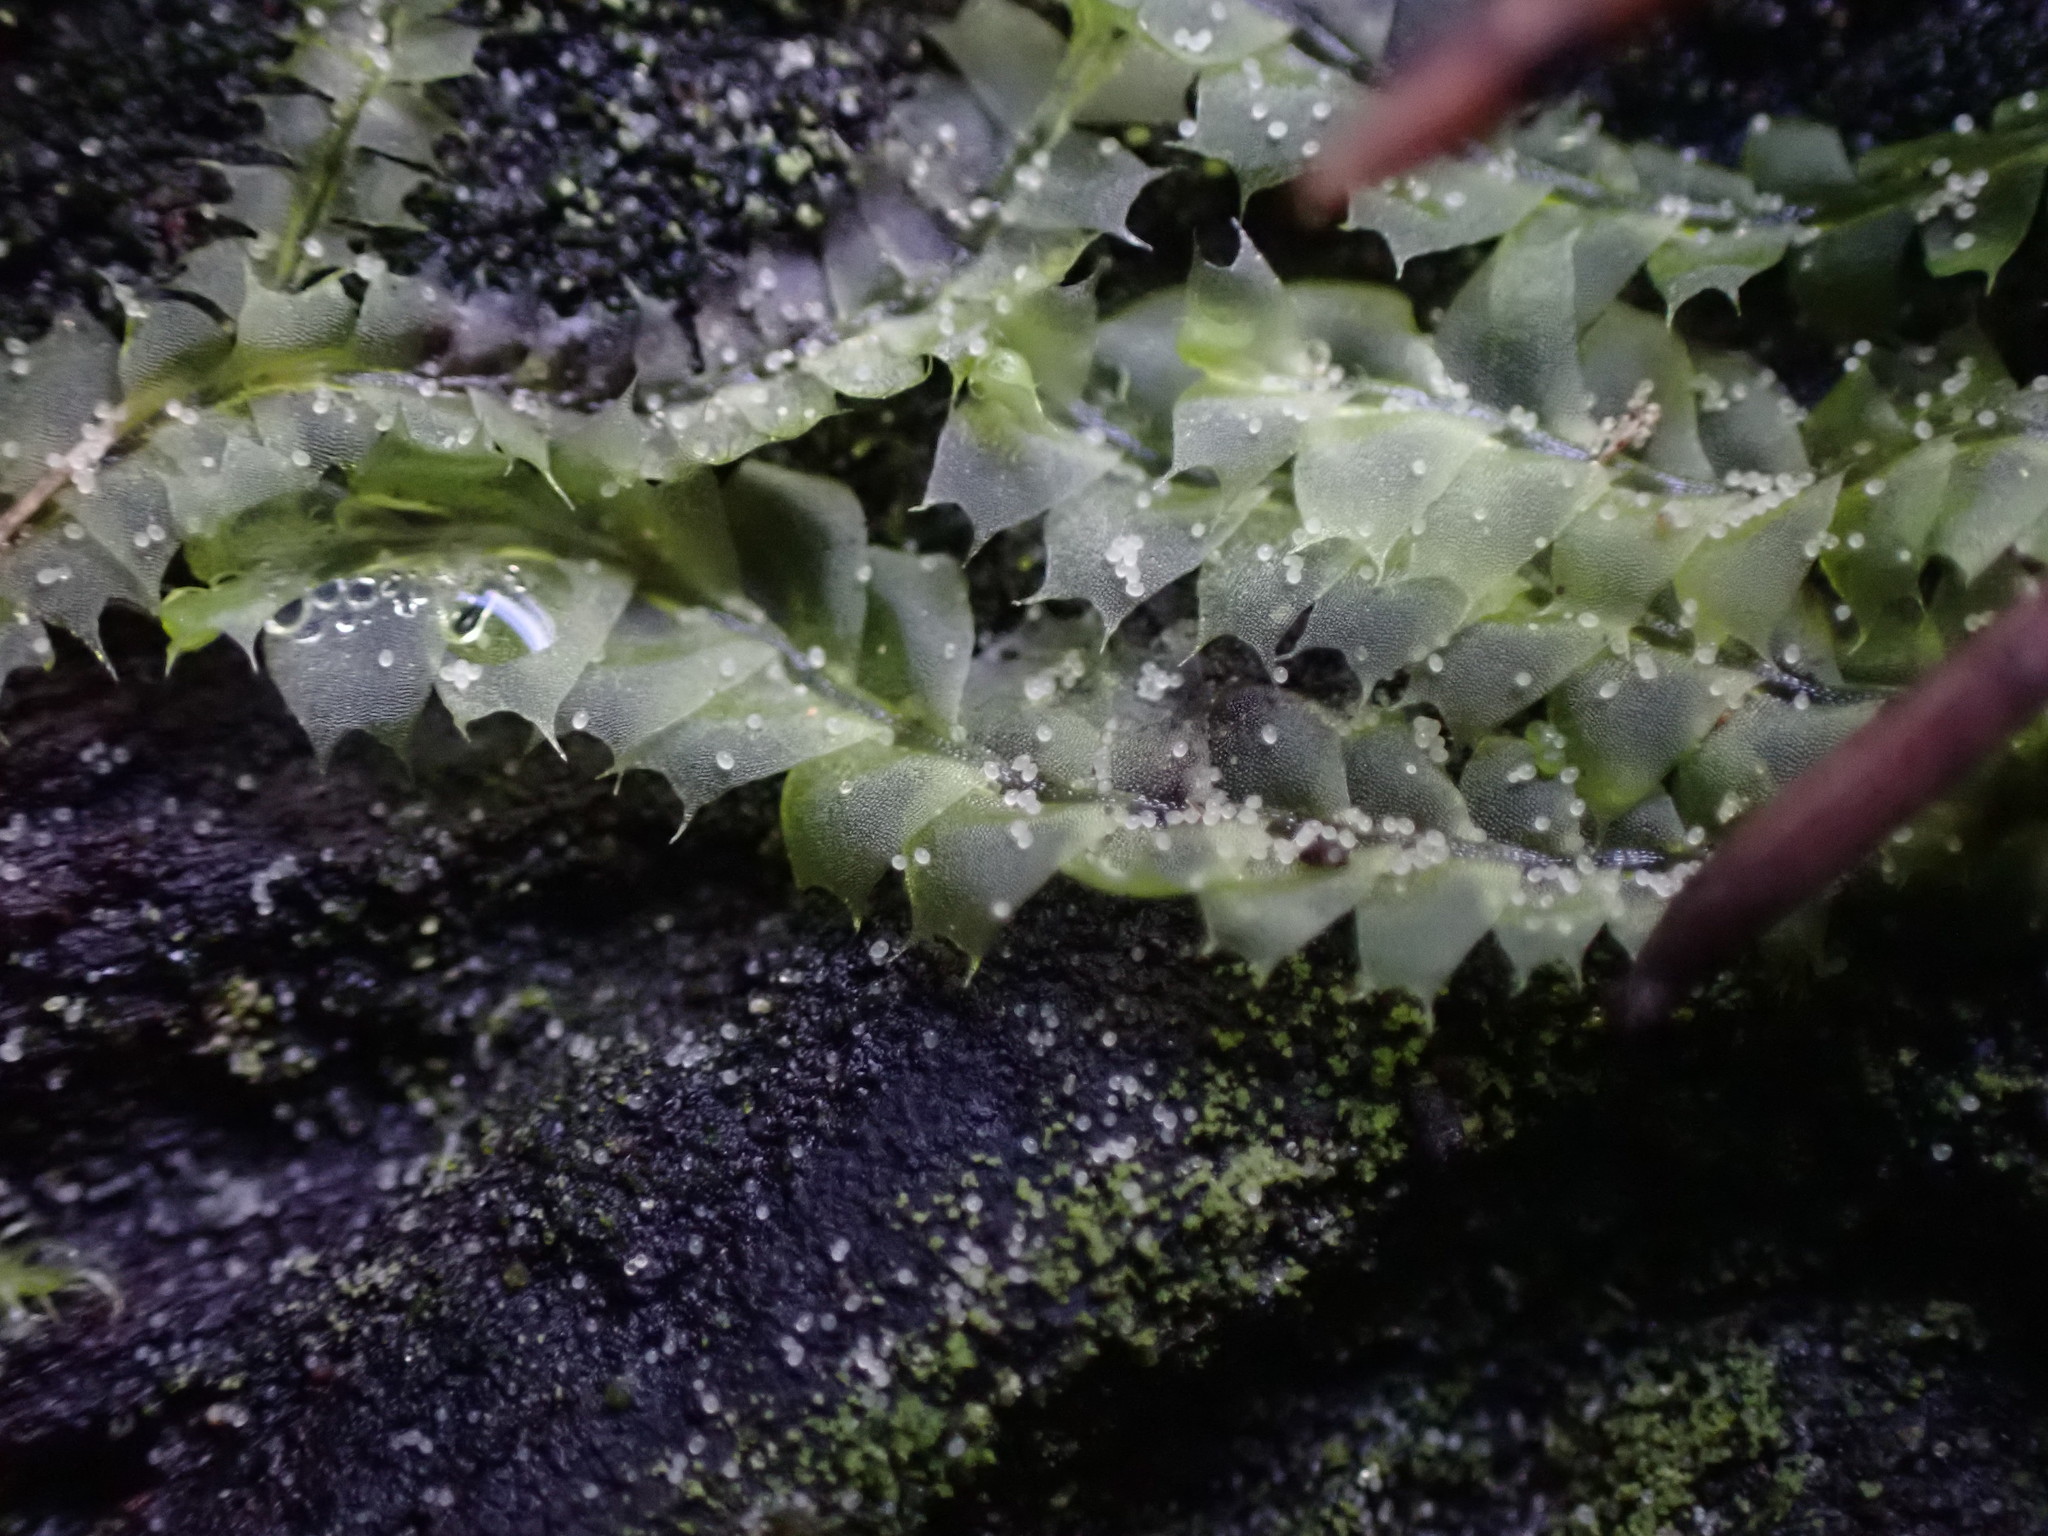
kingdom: Plantae
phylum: Marchantiophyta
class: Jungermanniopsida
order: Jungermanniales
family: Lophocoleaceae
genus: Lophocolea
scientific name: Lophocolea bidentata
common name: Bifid crestwort
